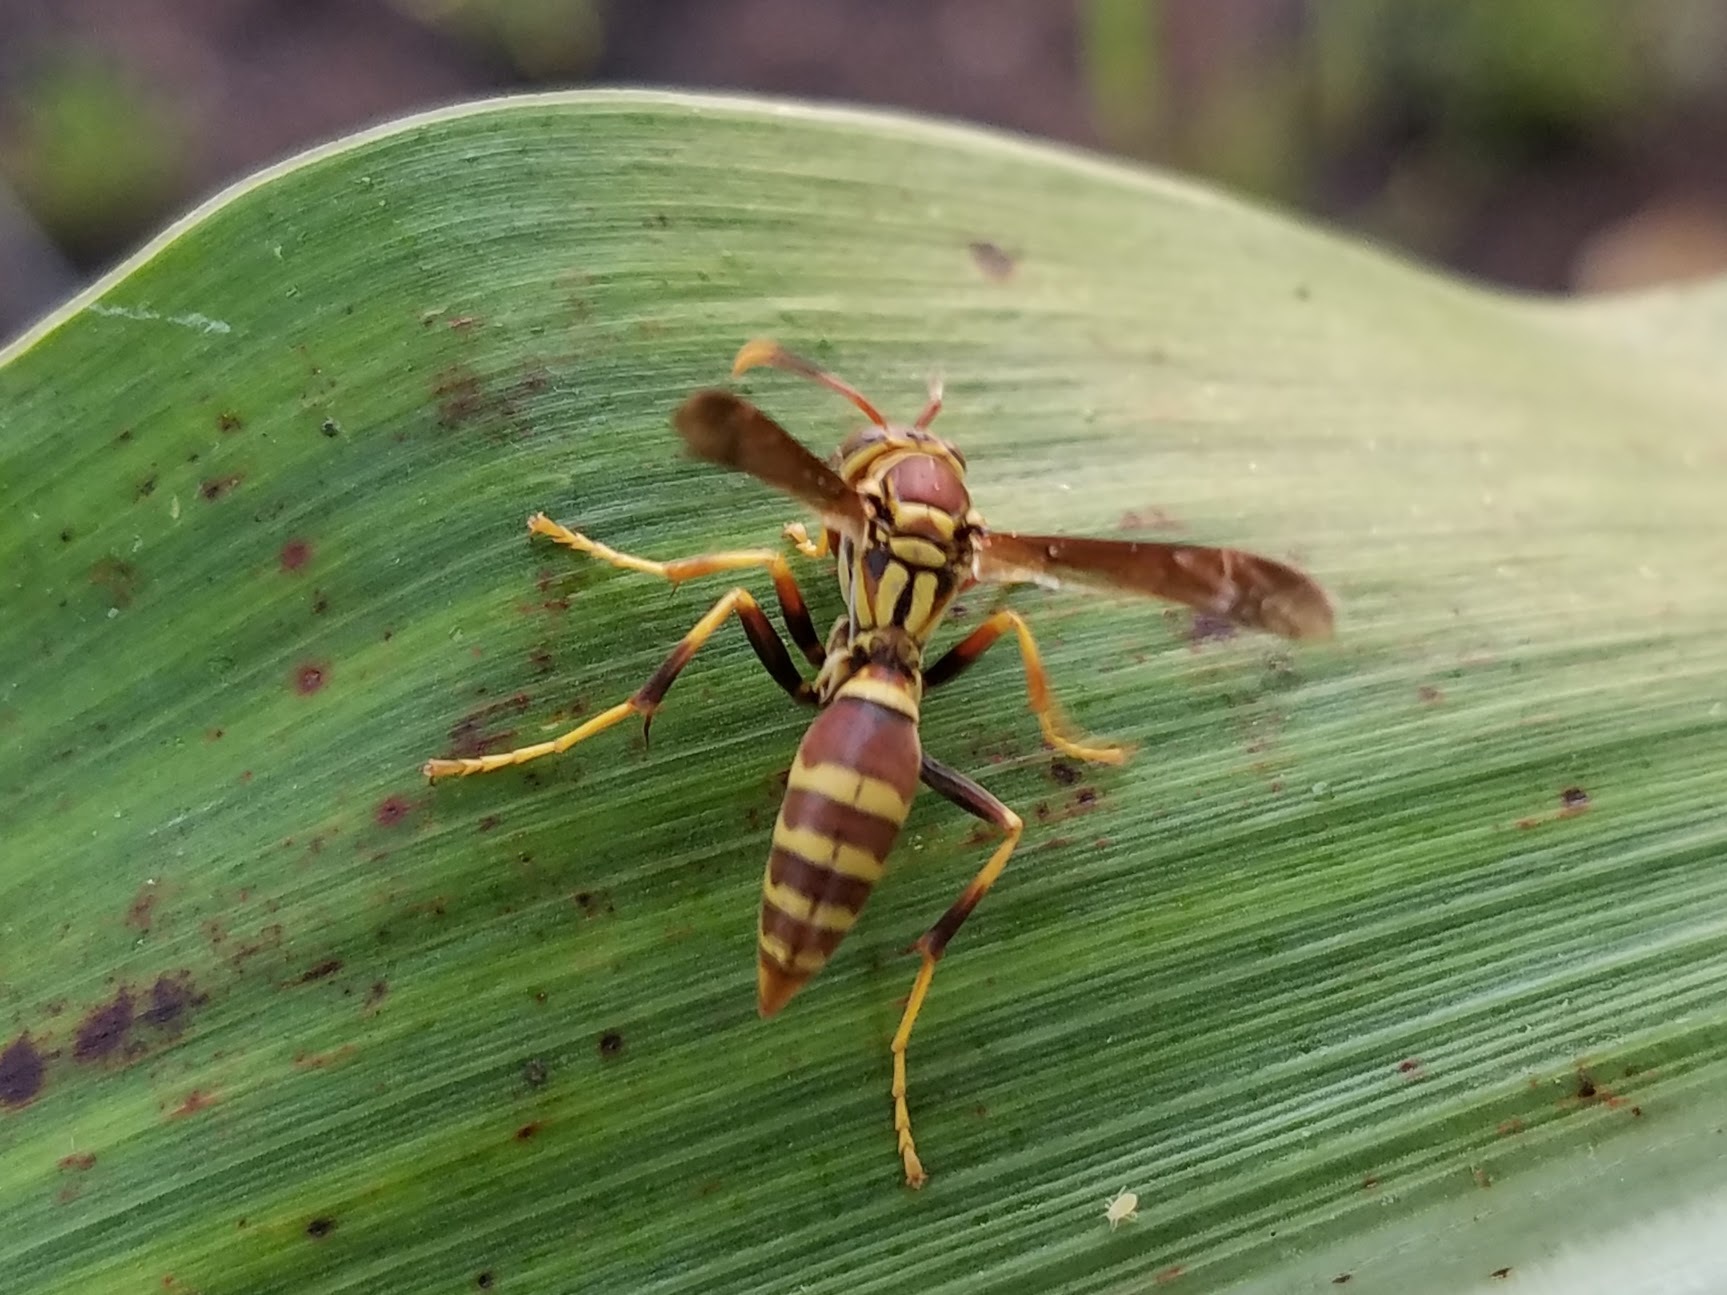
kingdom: Animalia
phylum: Arthropoda
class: Insecta
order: Hymenoptera
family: Eumenidae
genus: Polistes
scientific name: Polistes exclamans
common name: Paper wasp
